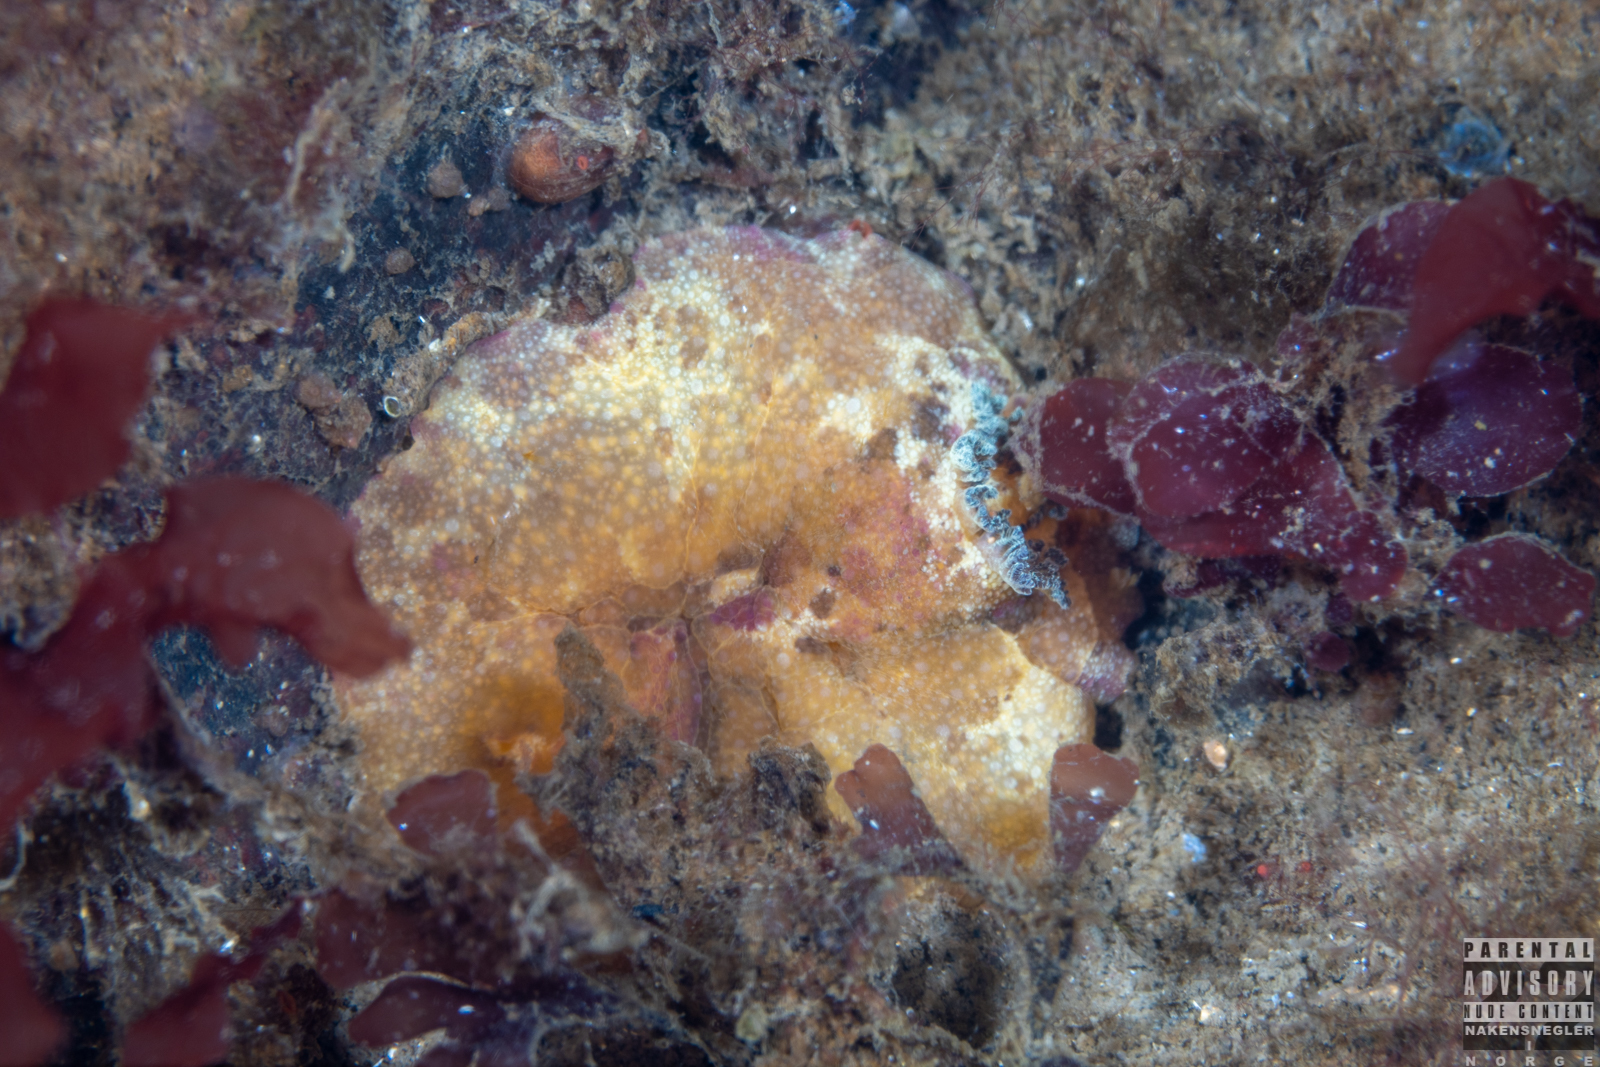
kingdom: Animalia
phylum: Mollusca
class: Gastropoda
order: Nudibranchia
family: Dorididae
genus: Doris
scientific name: Doris pseudoargus
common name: Sea lemon
